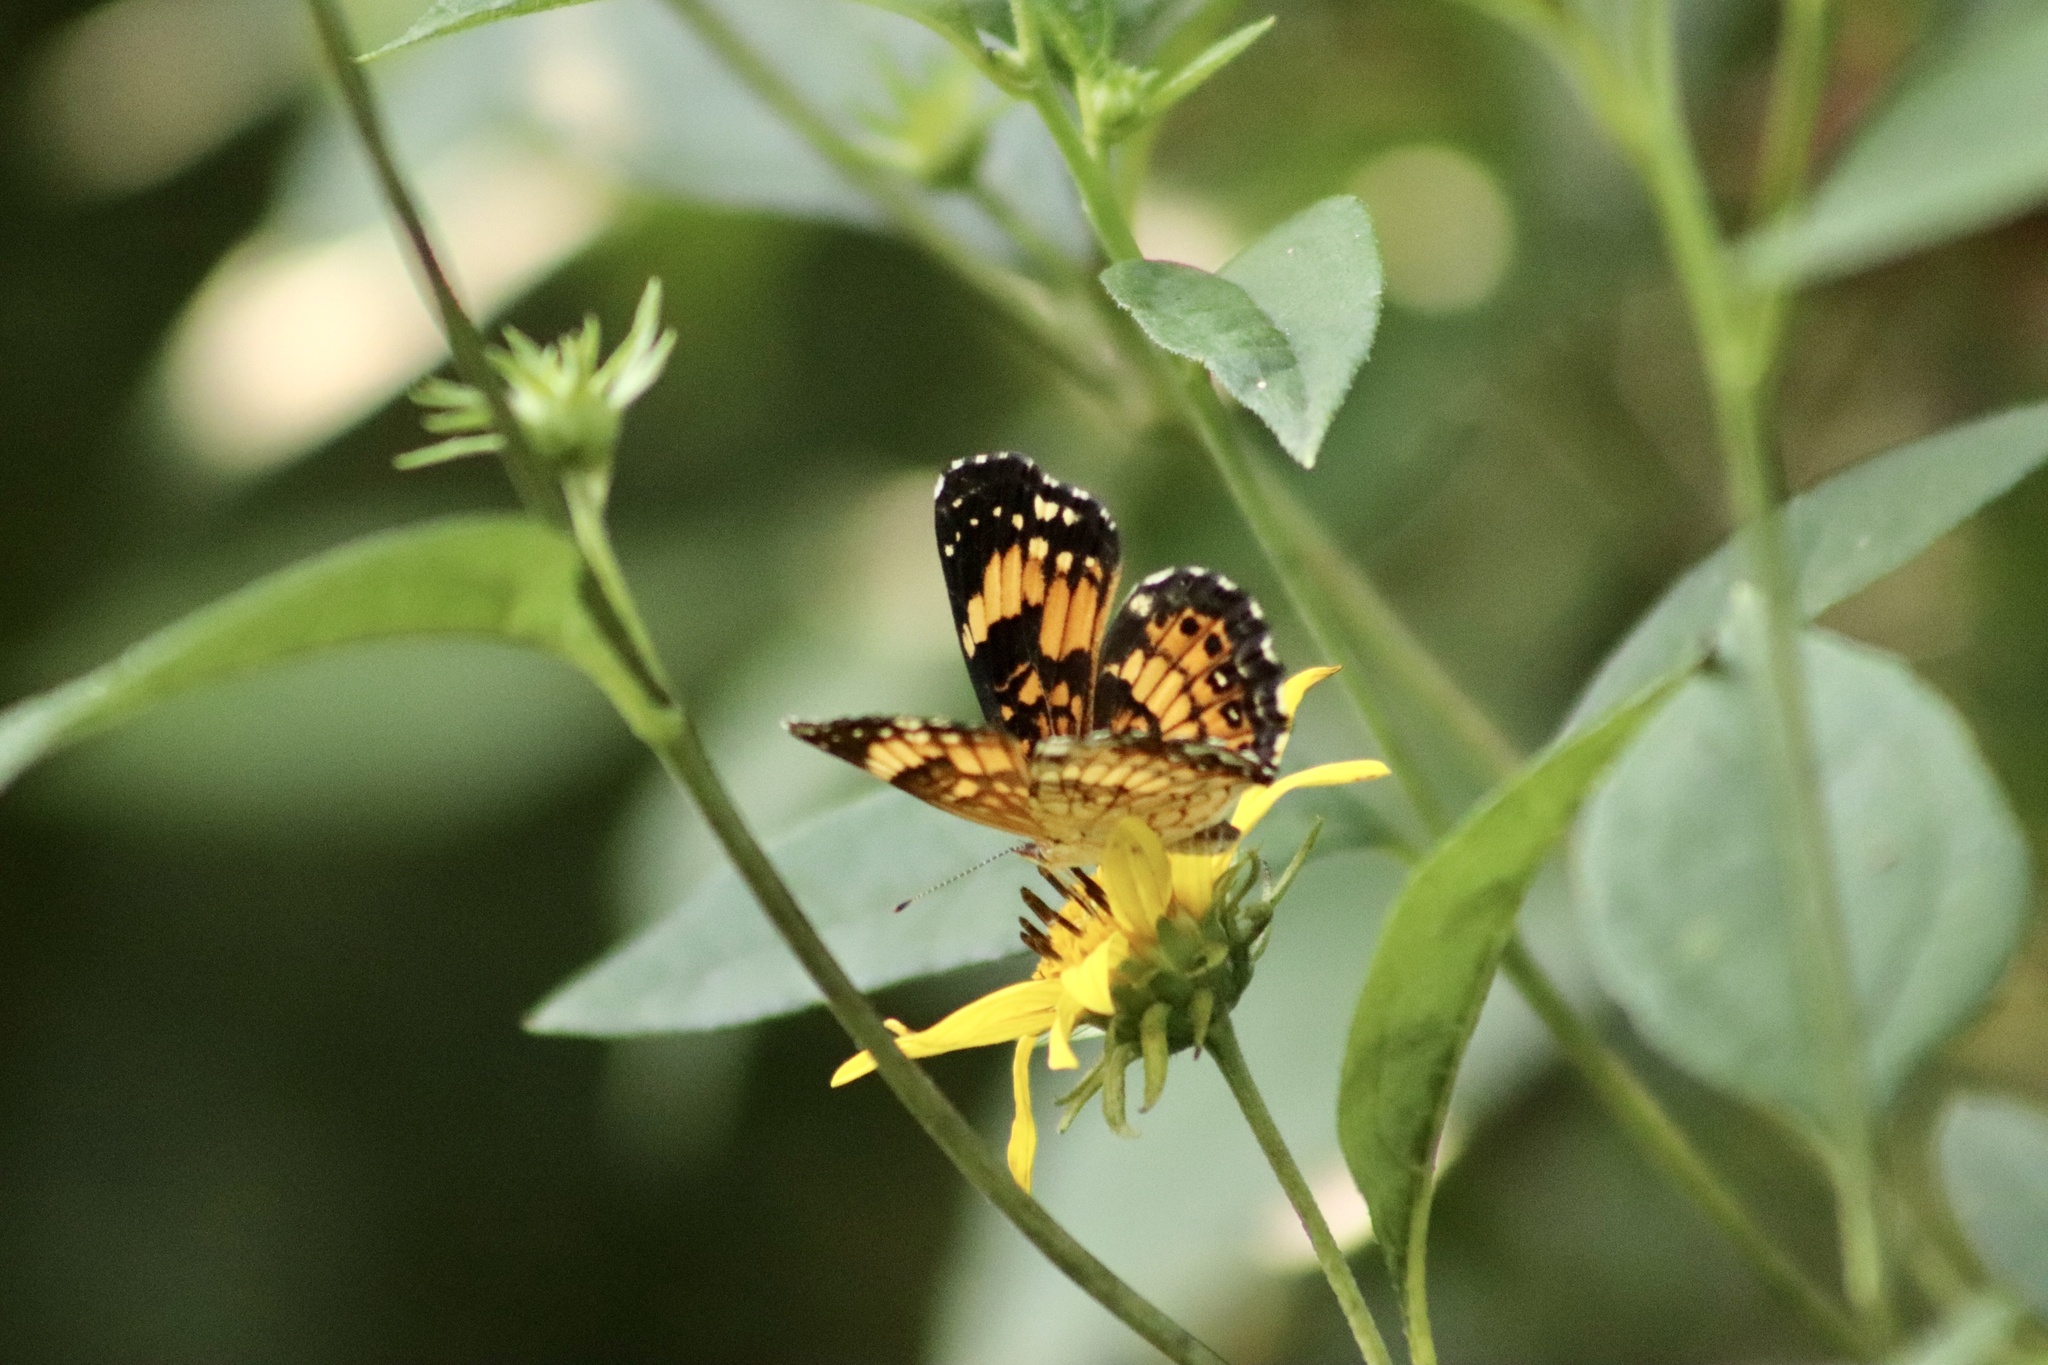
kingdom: Animalia
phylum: Arthropoda
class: Insecta
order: Lepidoptera
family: Nymphalidae
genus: Chlosyne
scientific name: Chlosyne nycteis
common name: Silvery checkerspot
